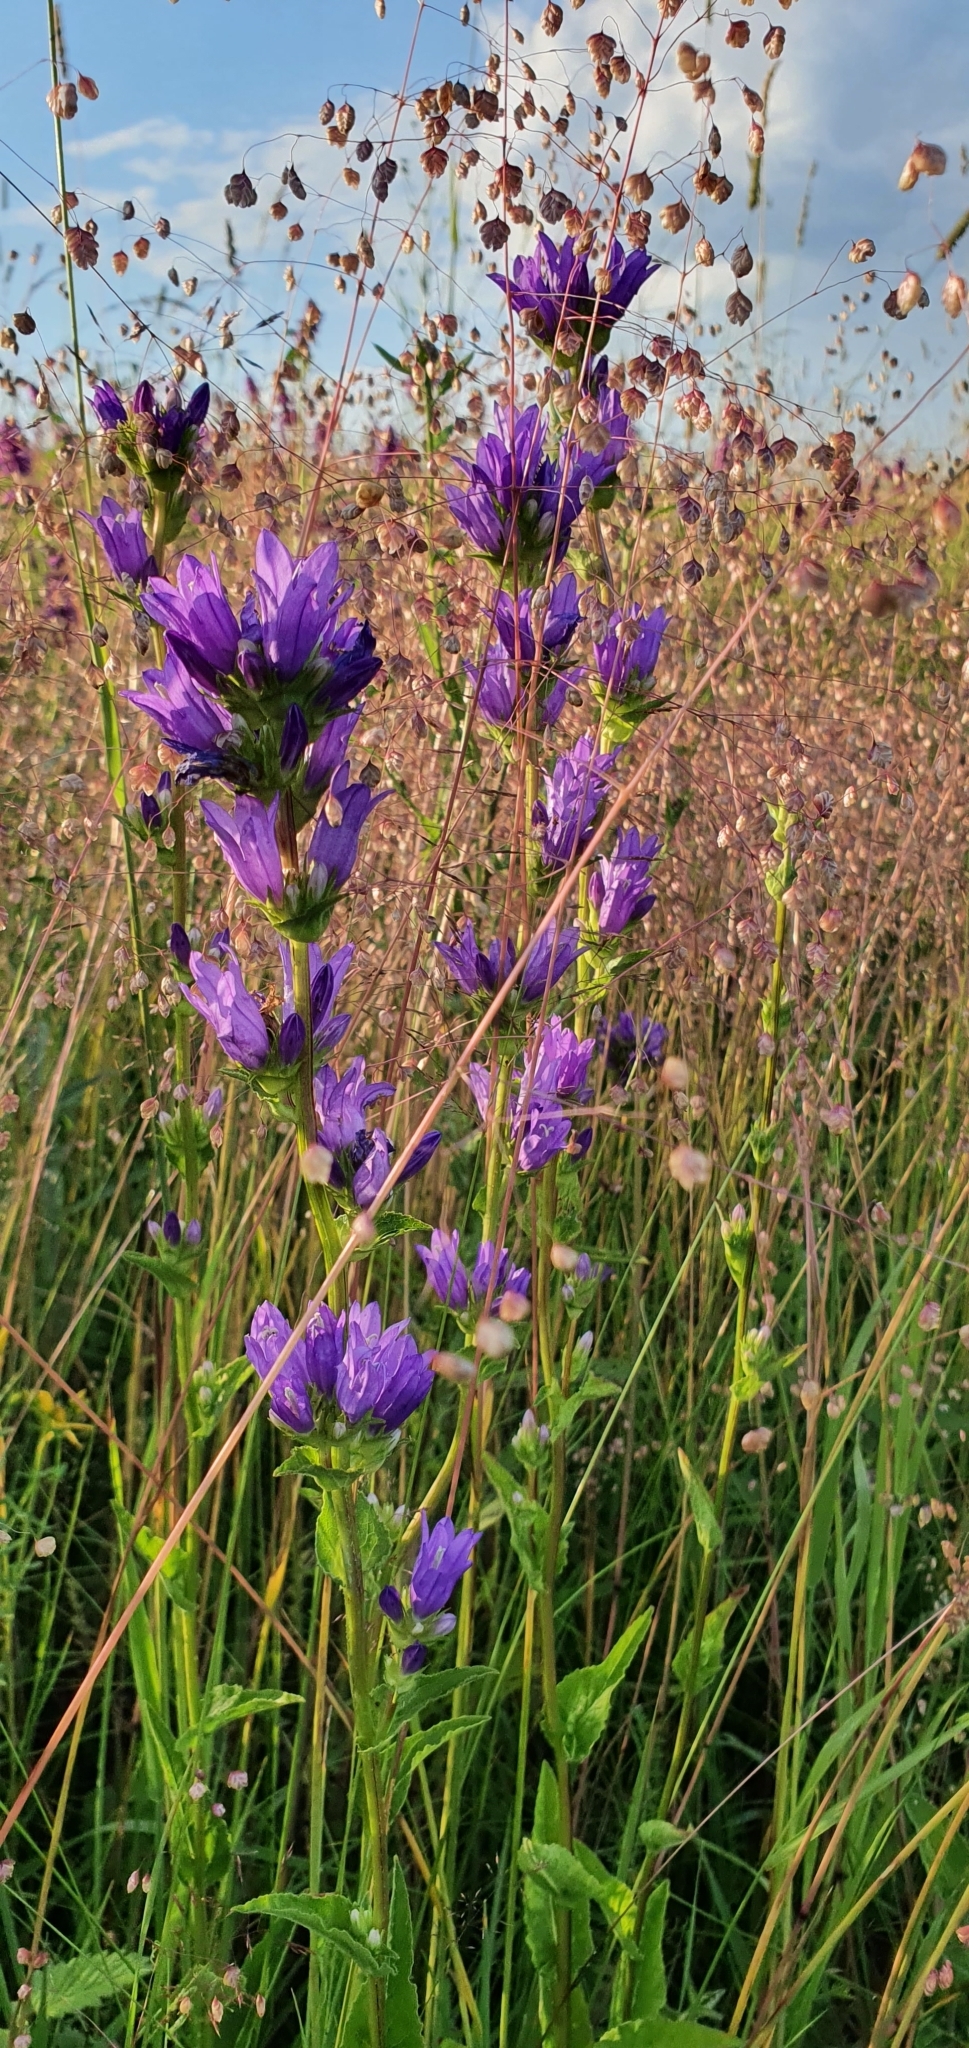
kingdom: Plantae
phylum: Tracheophyta
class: Magnoliopsida
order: Asterales
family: Campanulaceae
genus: Campanula
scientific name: Campanula glomerata
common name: Clustered bellflower
